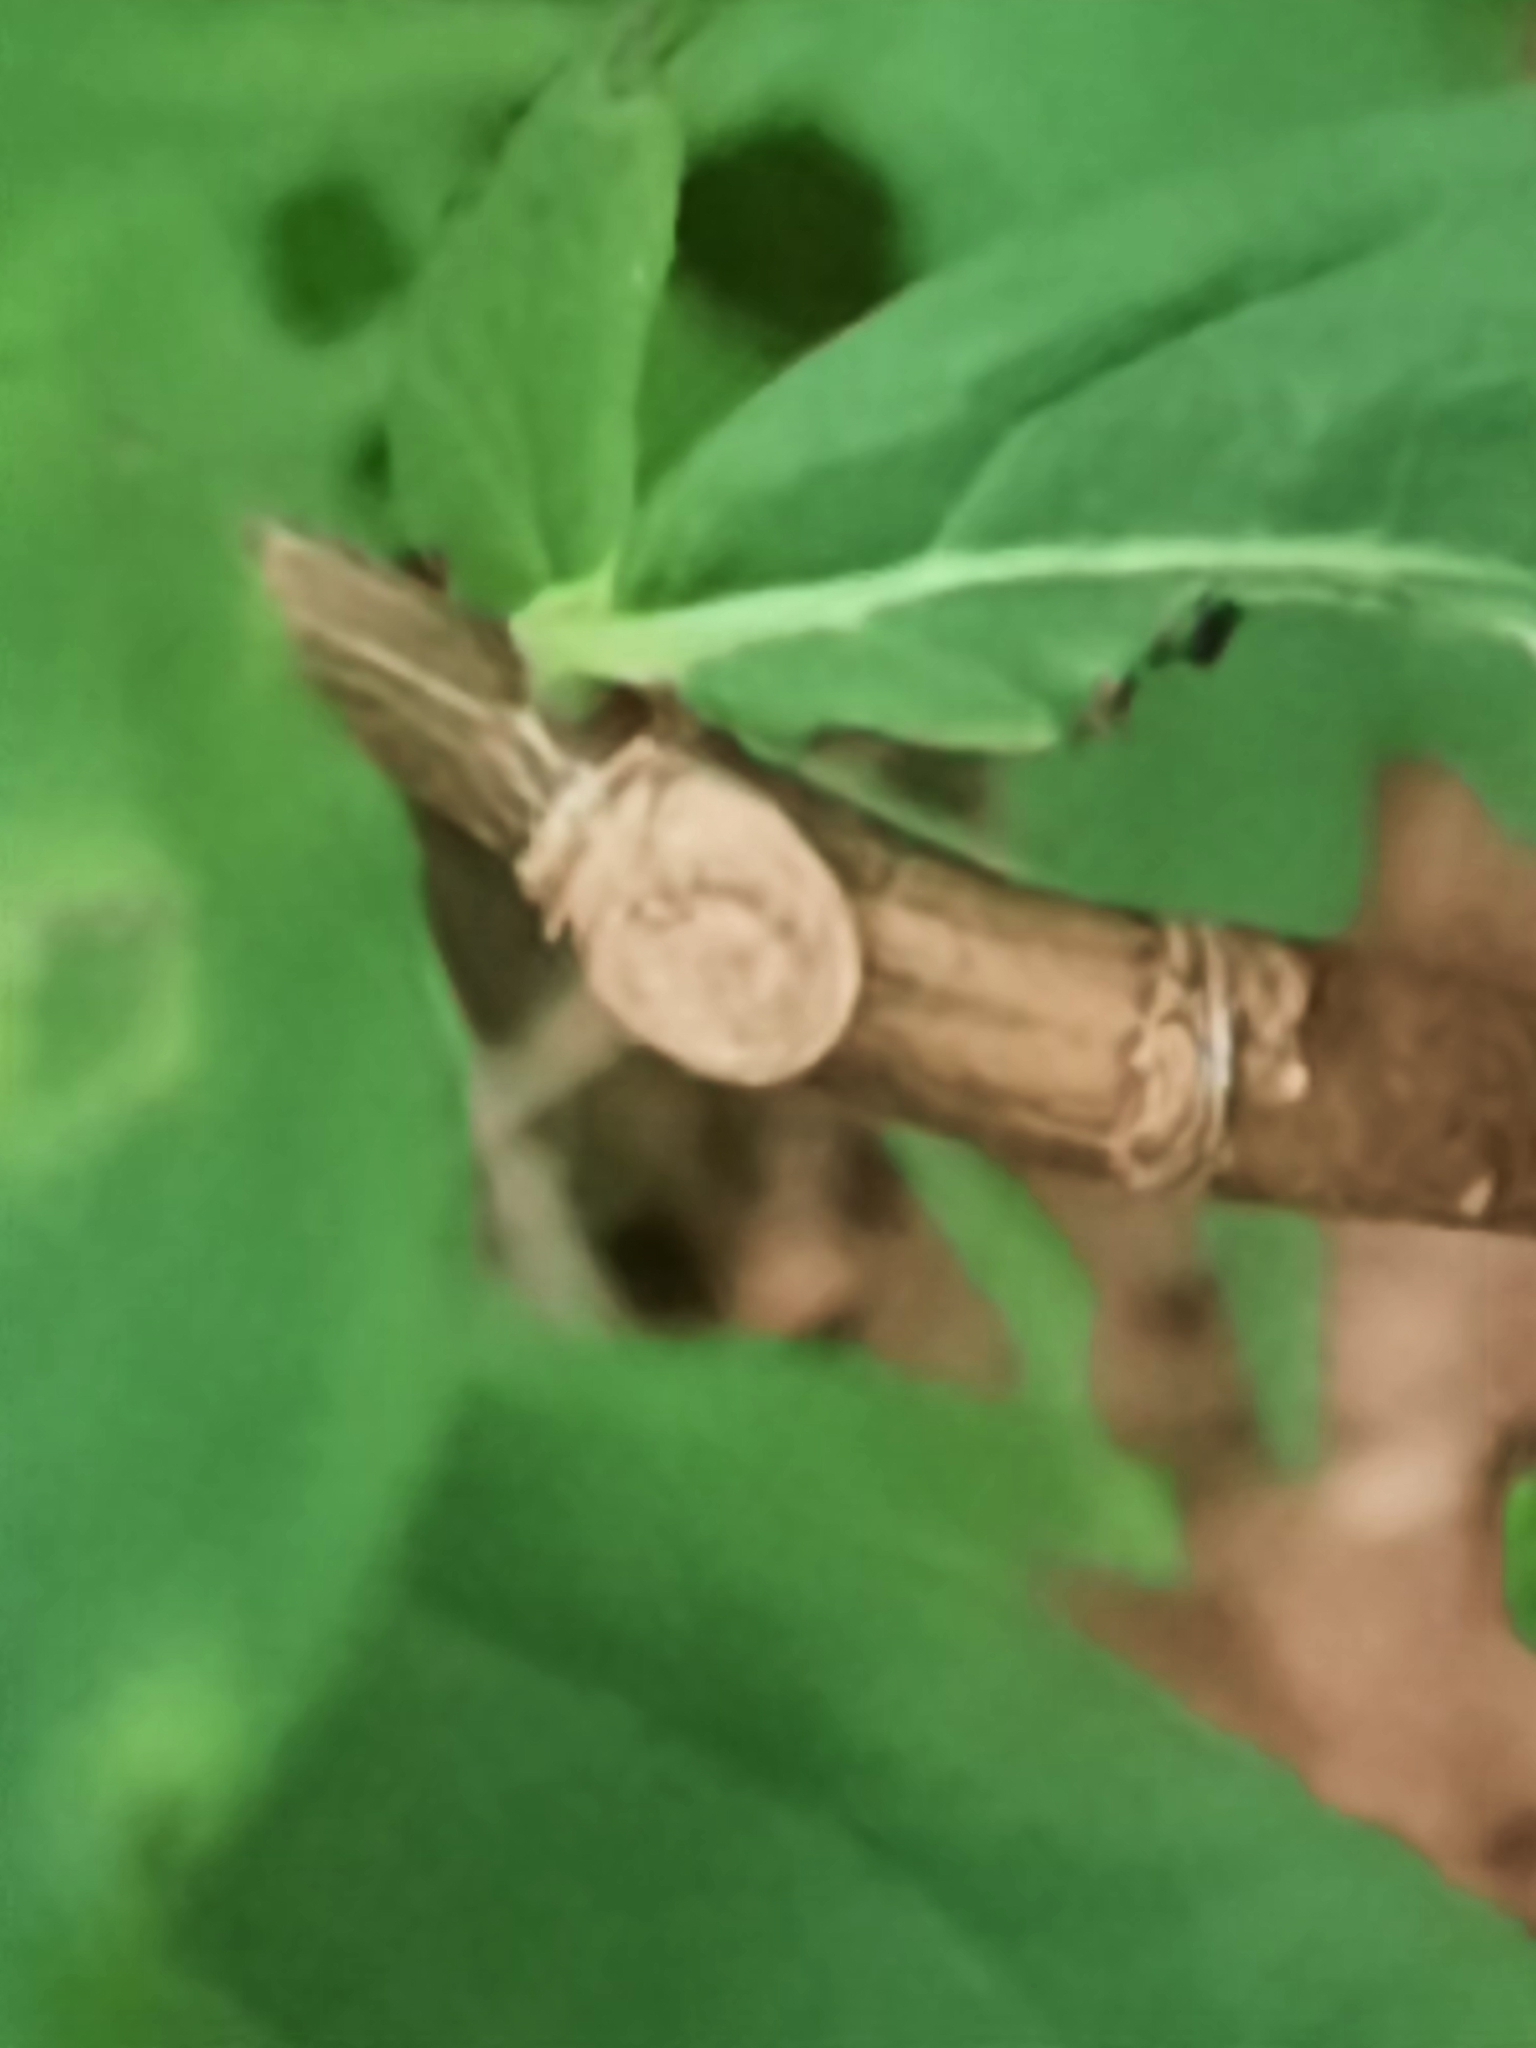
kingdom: Plantae
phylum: Tracheophyta
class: Magnoliopsida
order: Malvales
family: Thymelaeaceae
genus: Dirca
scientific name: Dirca palustris
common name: Leatherwood
